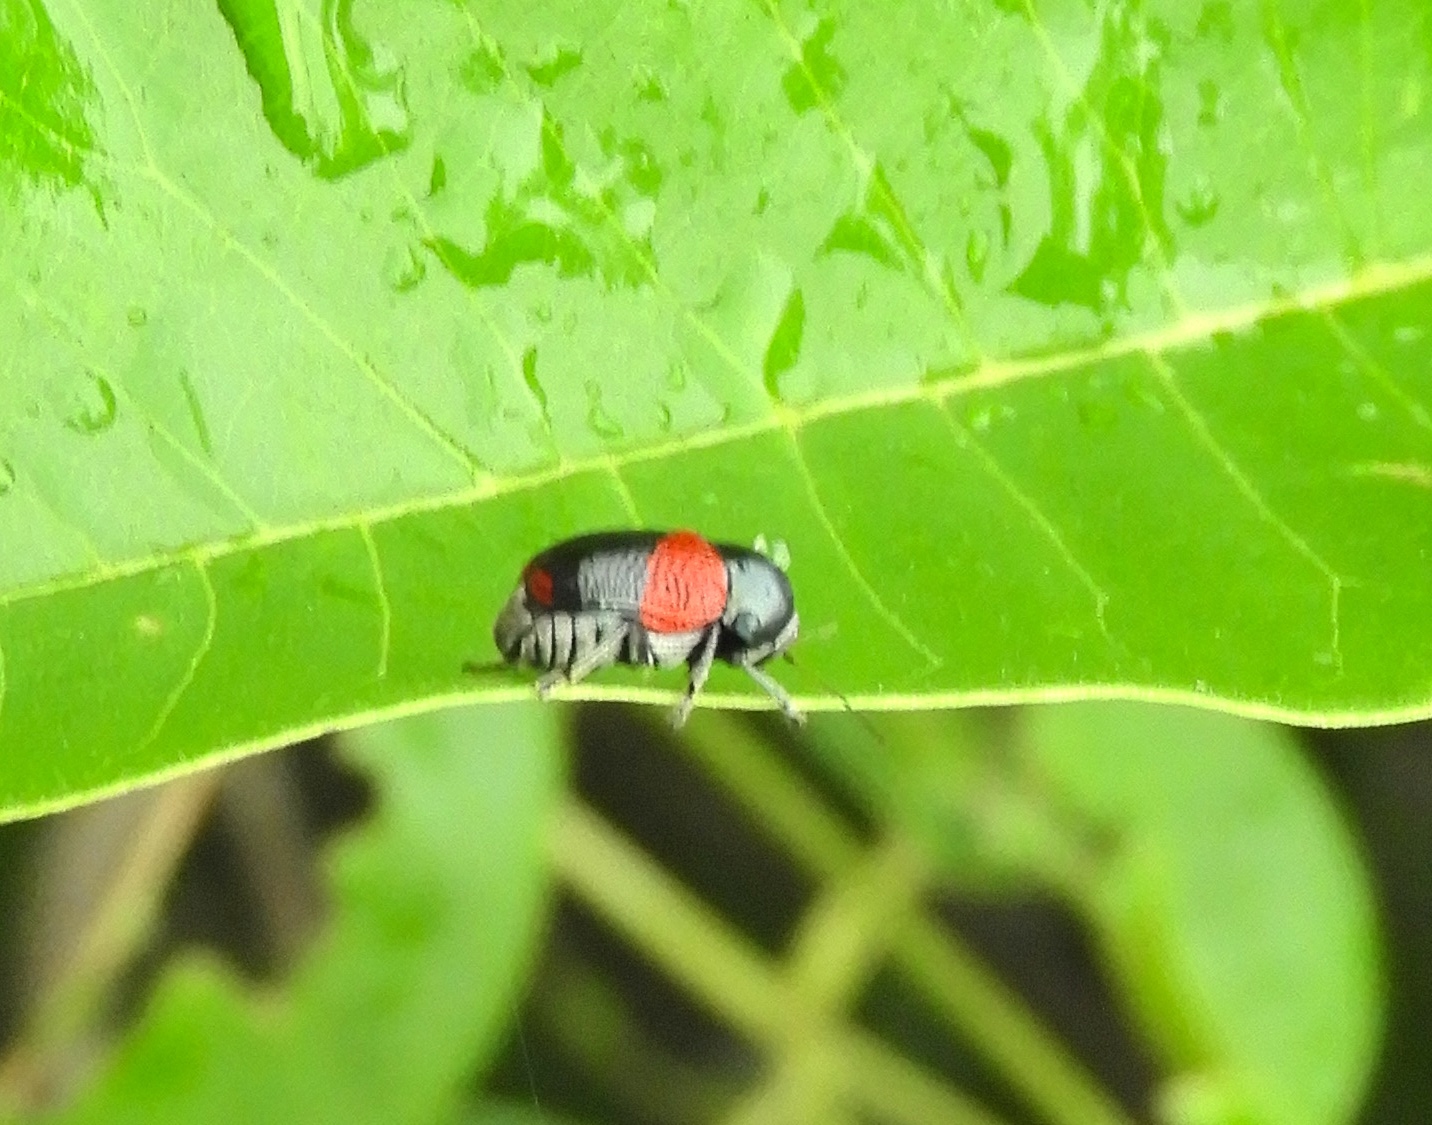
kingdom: Animalia
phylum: Arthropoda
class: Insecta
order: Coleoptera
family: Chrysomelidae
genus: Griburius
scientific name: Griburius
